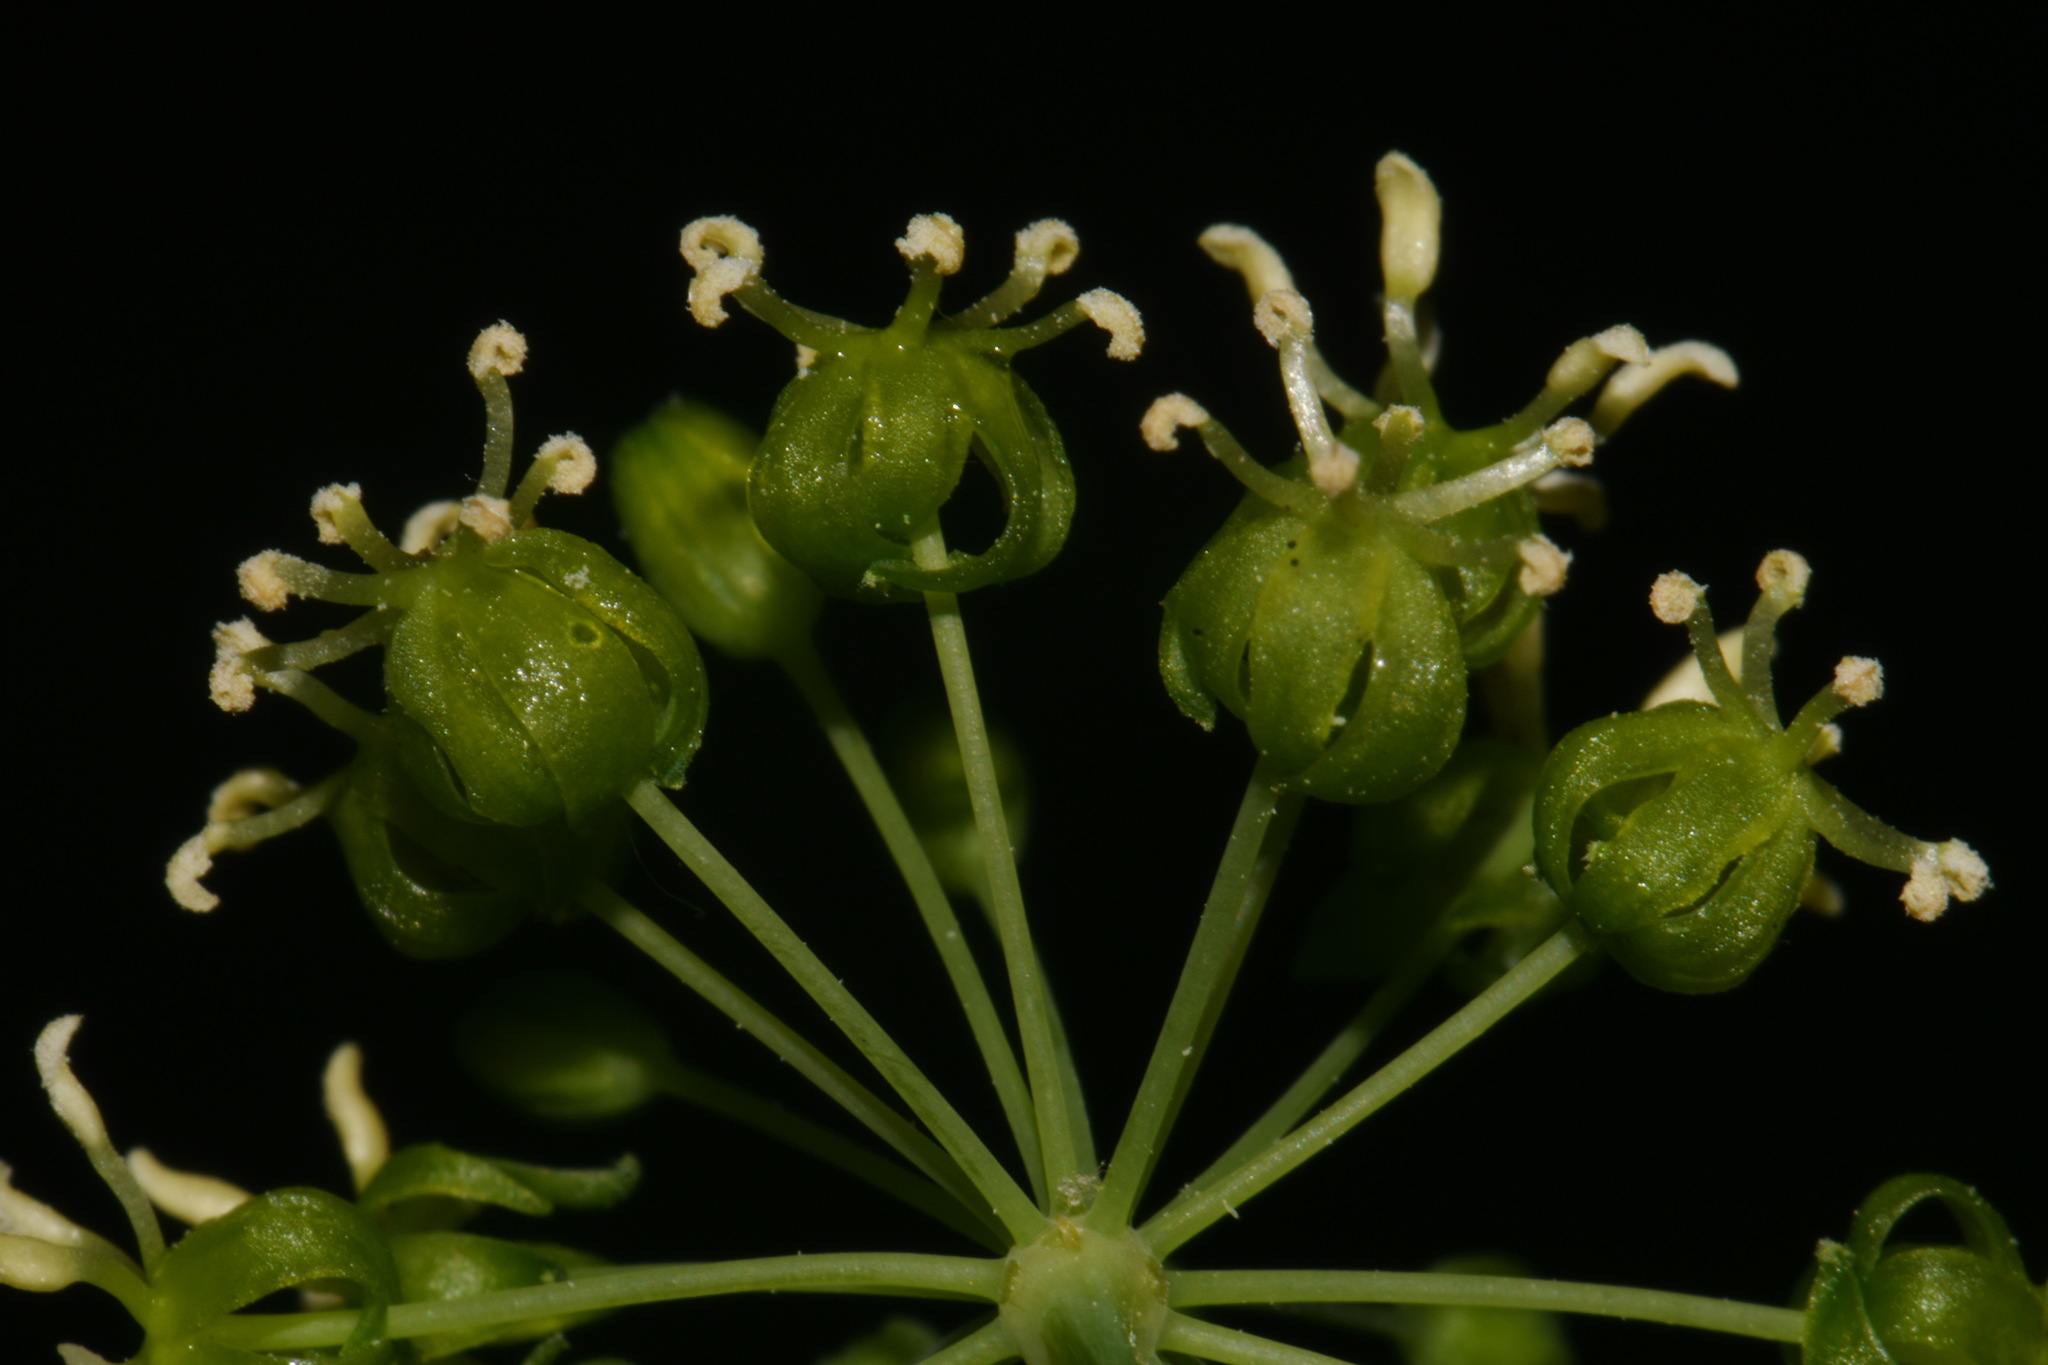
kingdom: Plantae
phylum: Tracheophyta
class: Liliopsida
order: Liliales
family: Smilacaceae
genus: Smilax
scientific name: Smilax lasioneura
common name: Blue ridge carrionflower
